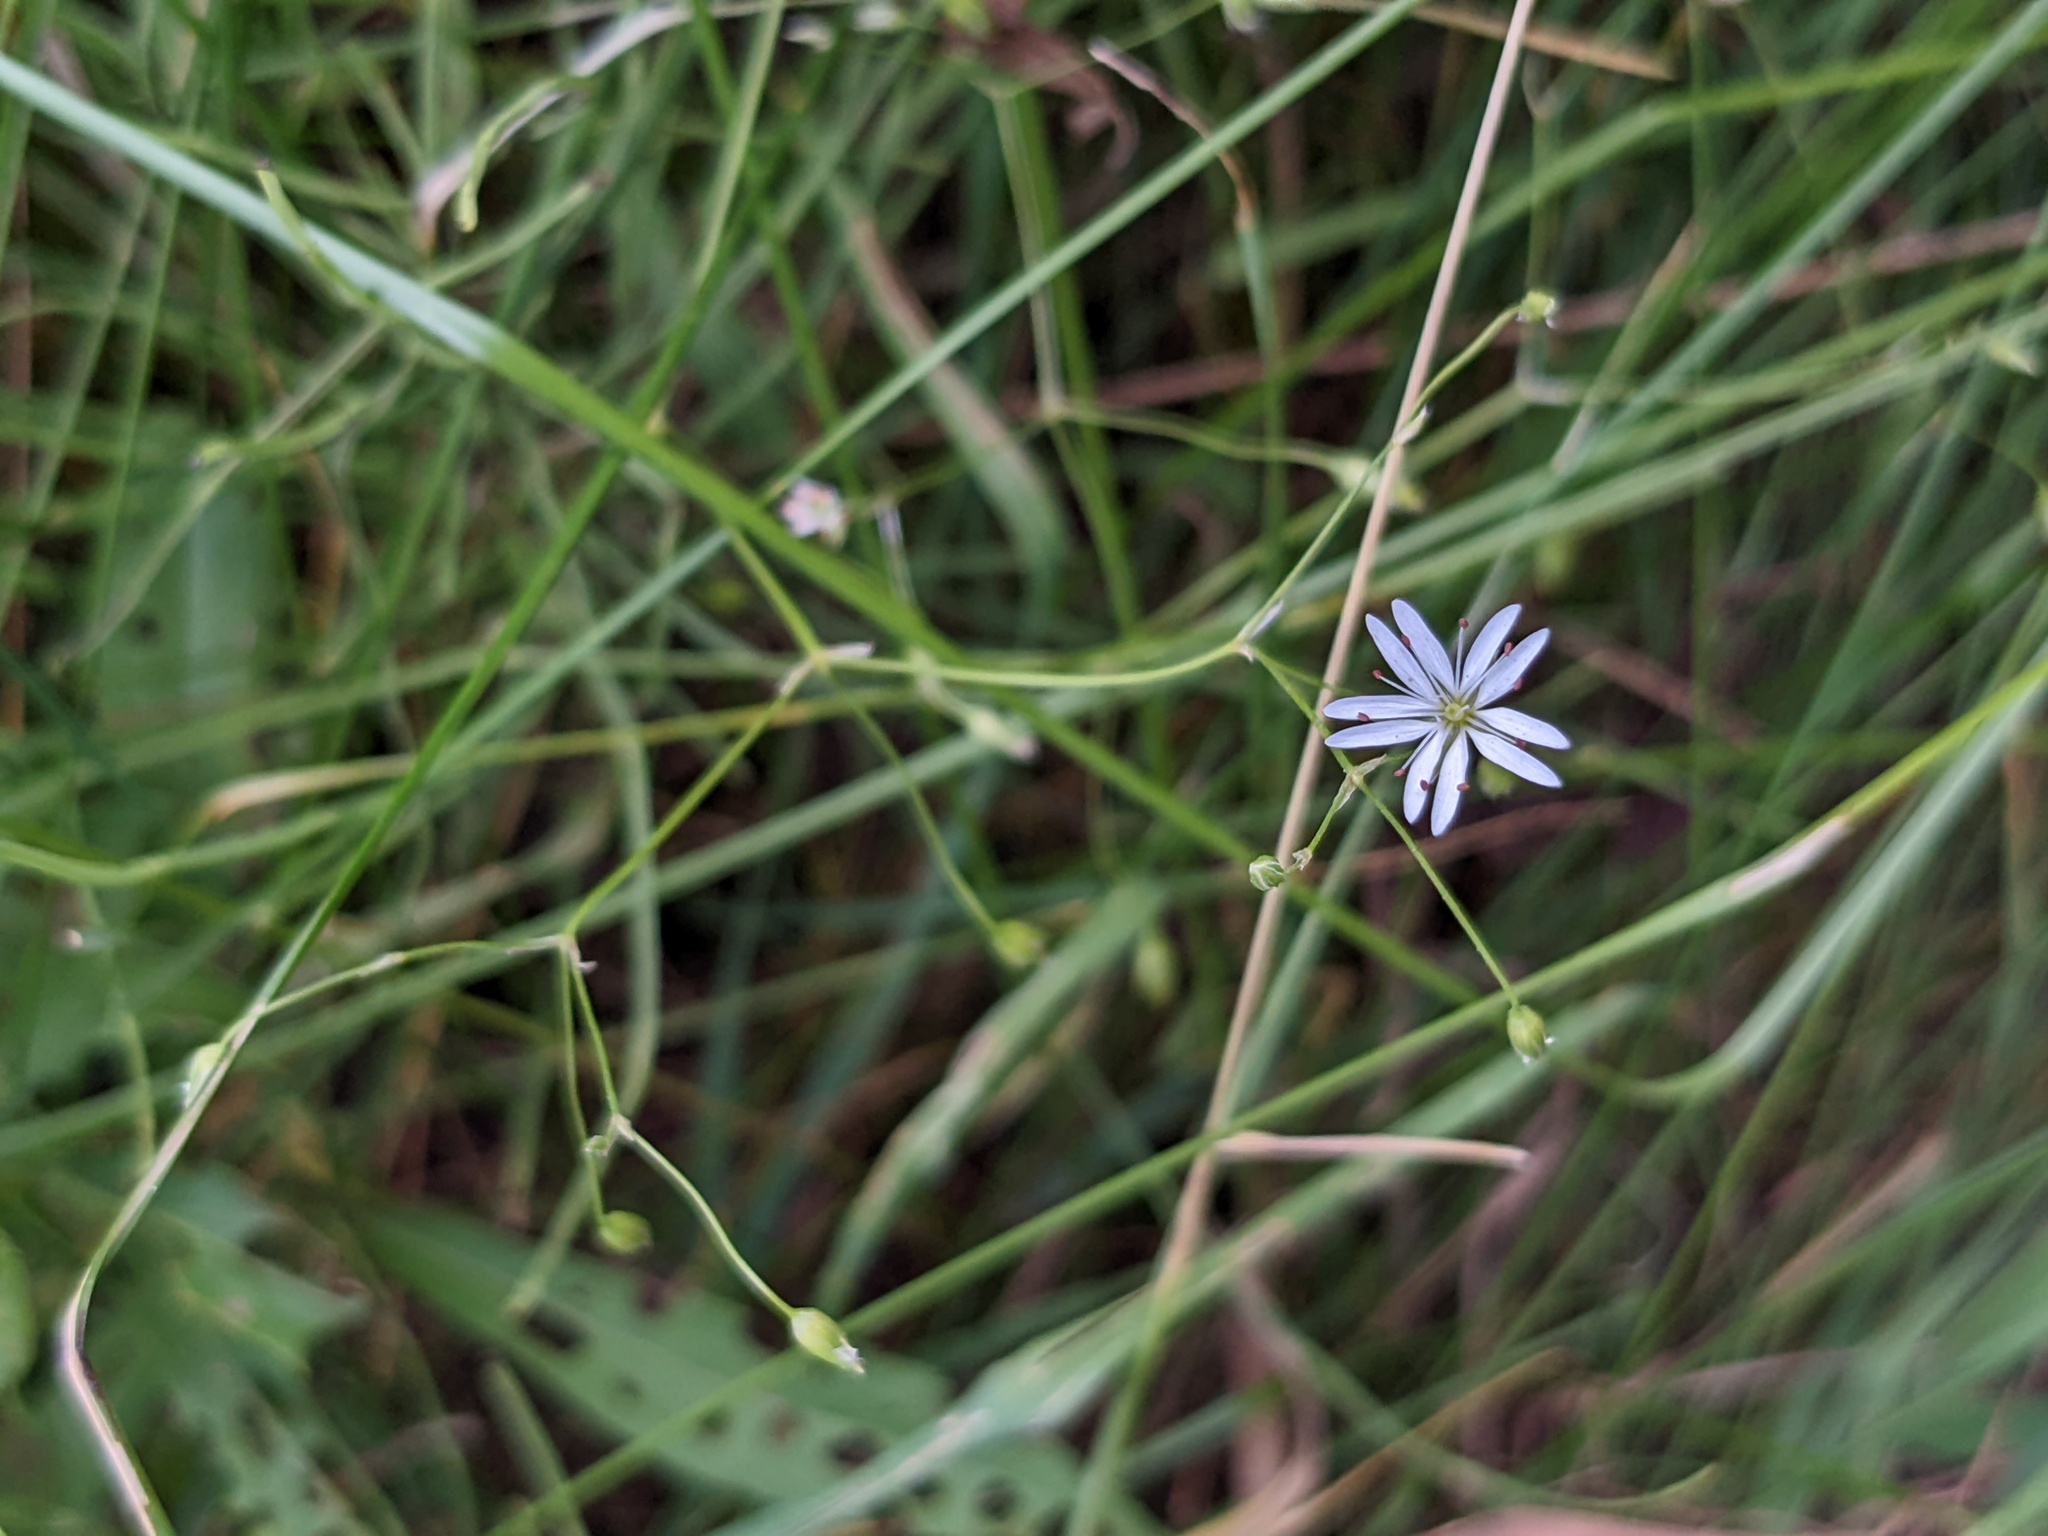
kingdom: Plantae
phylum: Tracheophyta
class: Magnoliopsida
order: Caryophyllales
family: Caryophyllaceae
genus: Stellaria
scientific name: Stellaria graminea
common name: Grass-like starwort
